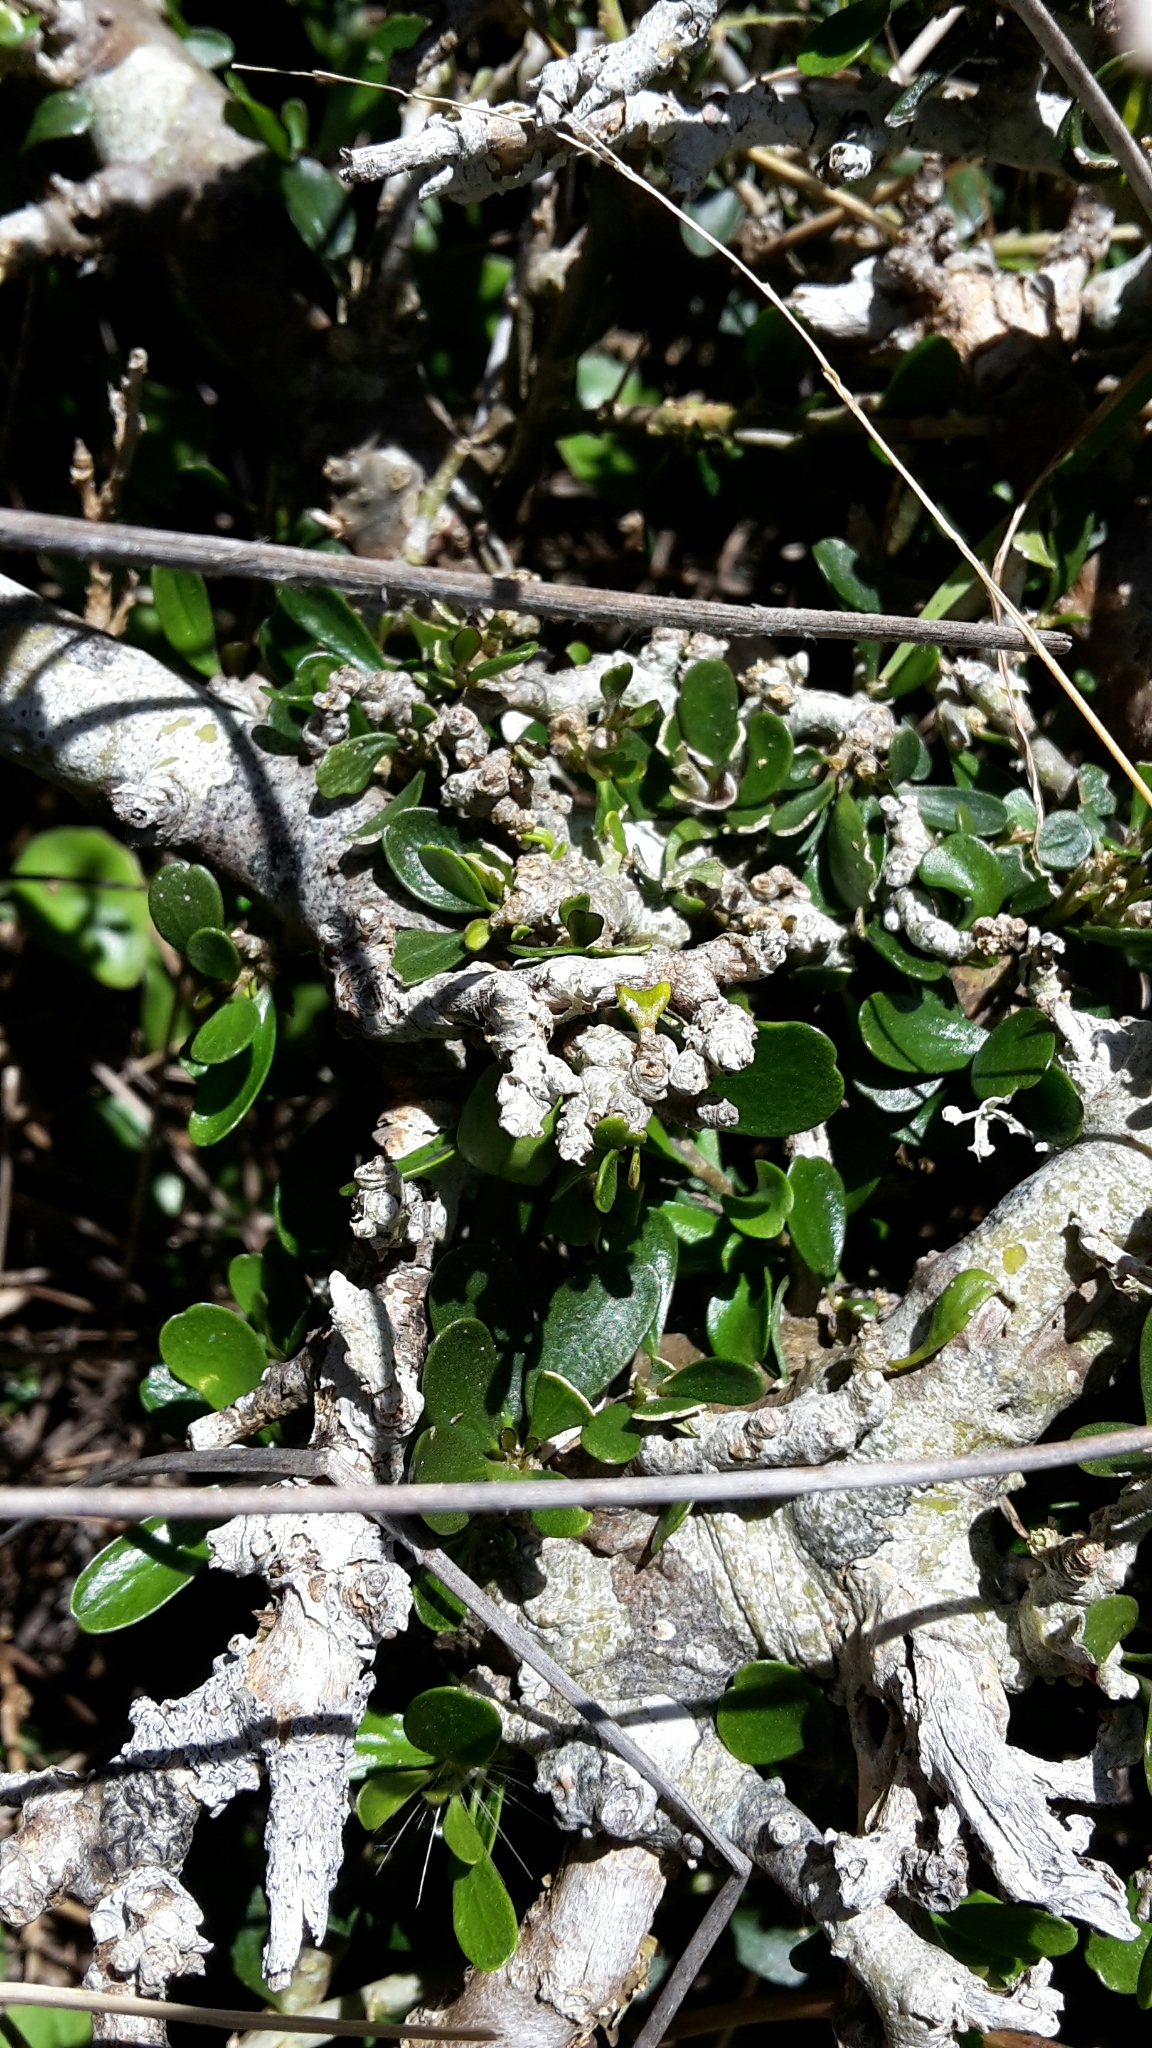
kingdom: Plantae
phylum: Tracheophyta
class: Magnoliopsida
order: Malpighiales
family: Violaceae
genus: Melicytus
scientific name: Melicytus crassifolius
